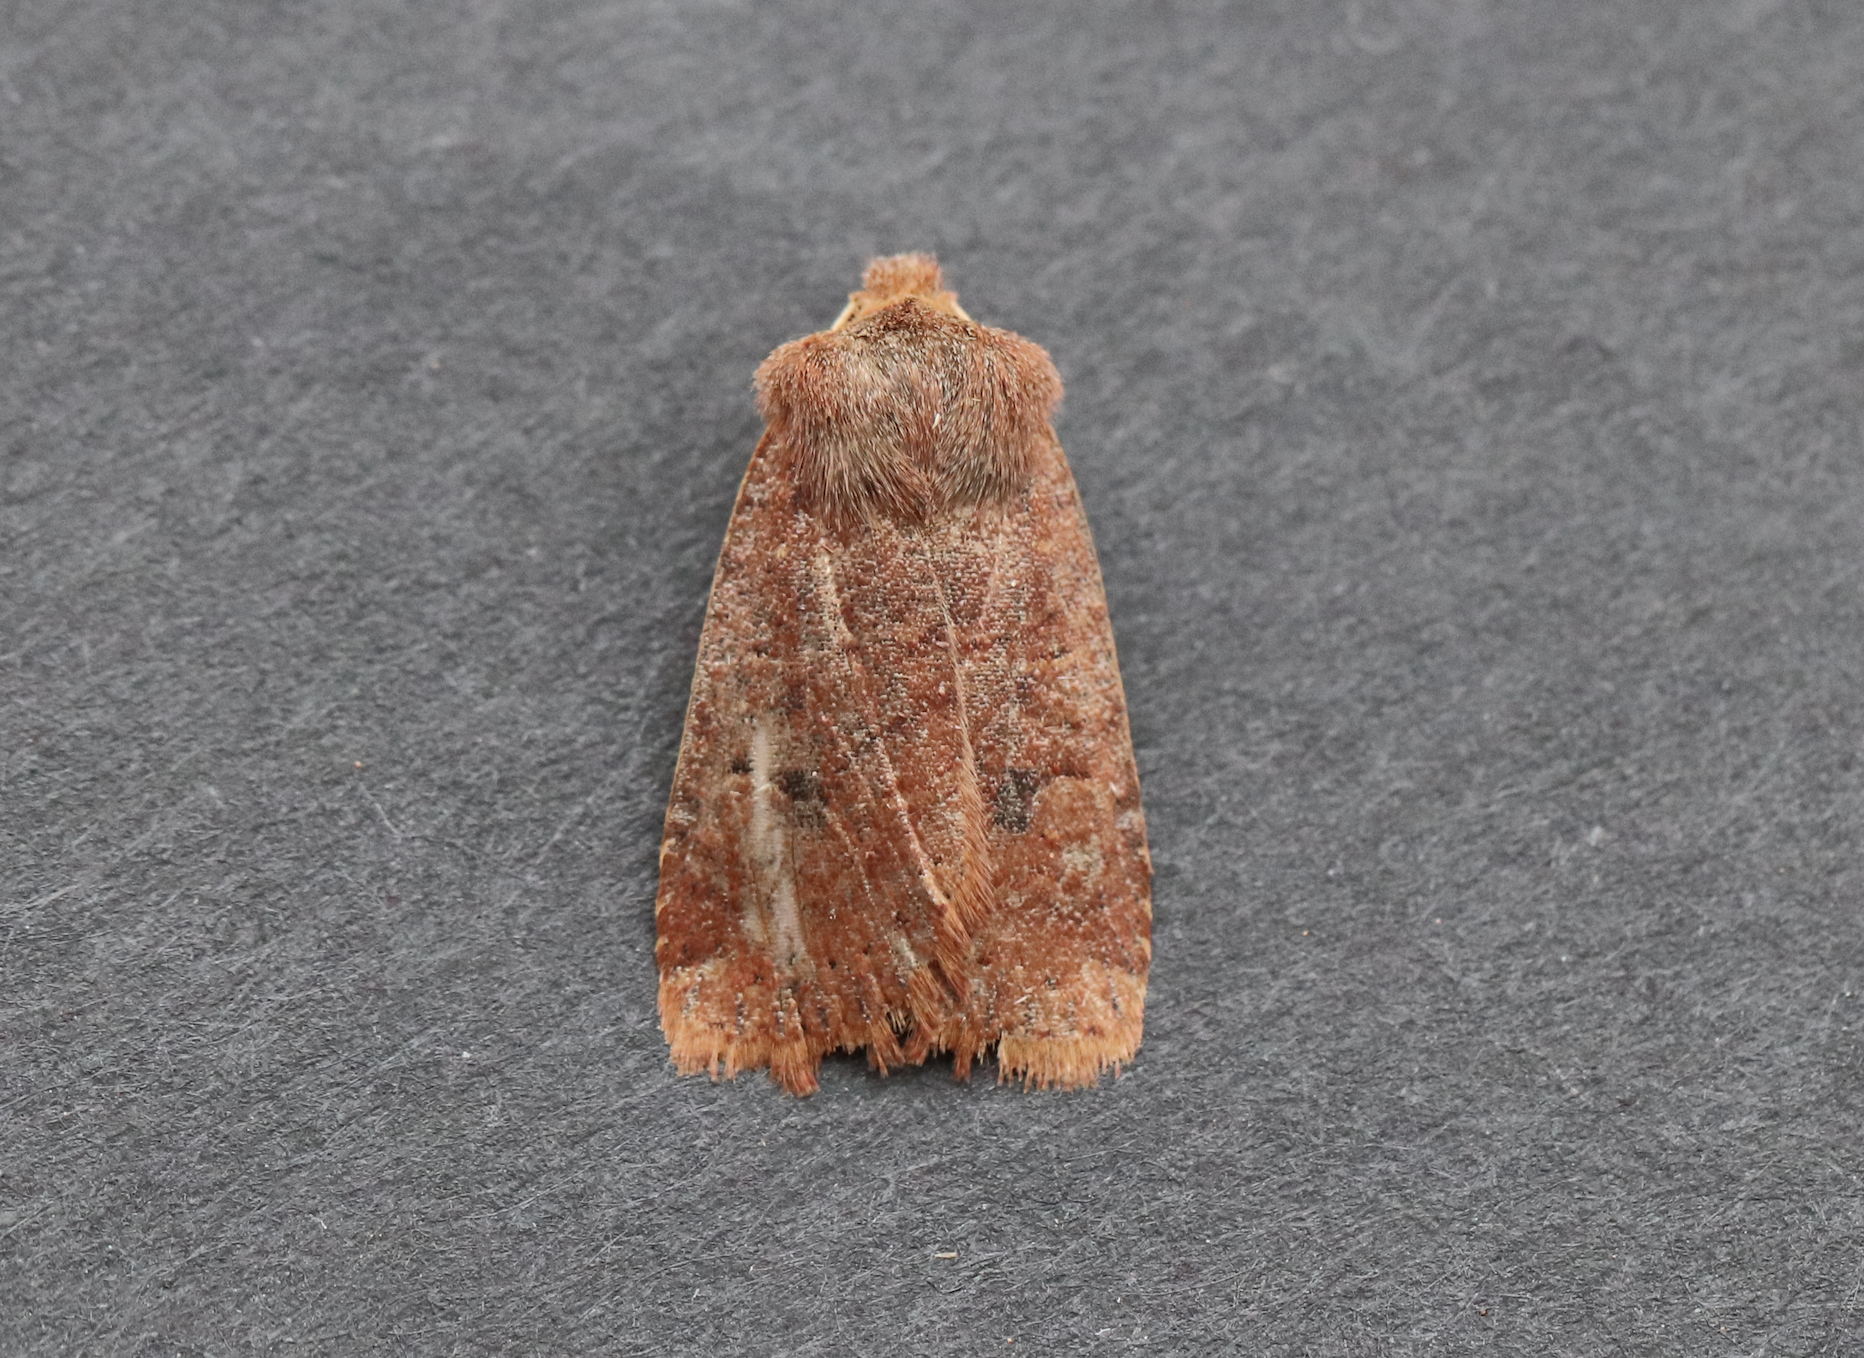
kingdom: Animalia
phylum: Arthropoda
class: Insecta
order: Lepidoptera
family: Noctuidae
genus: Conistra
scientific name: Conistra vaccinii
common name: Chestnut
